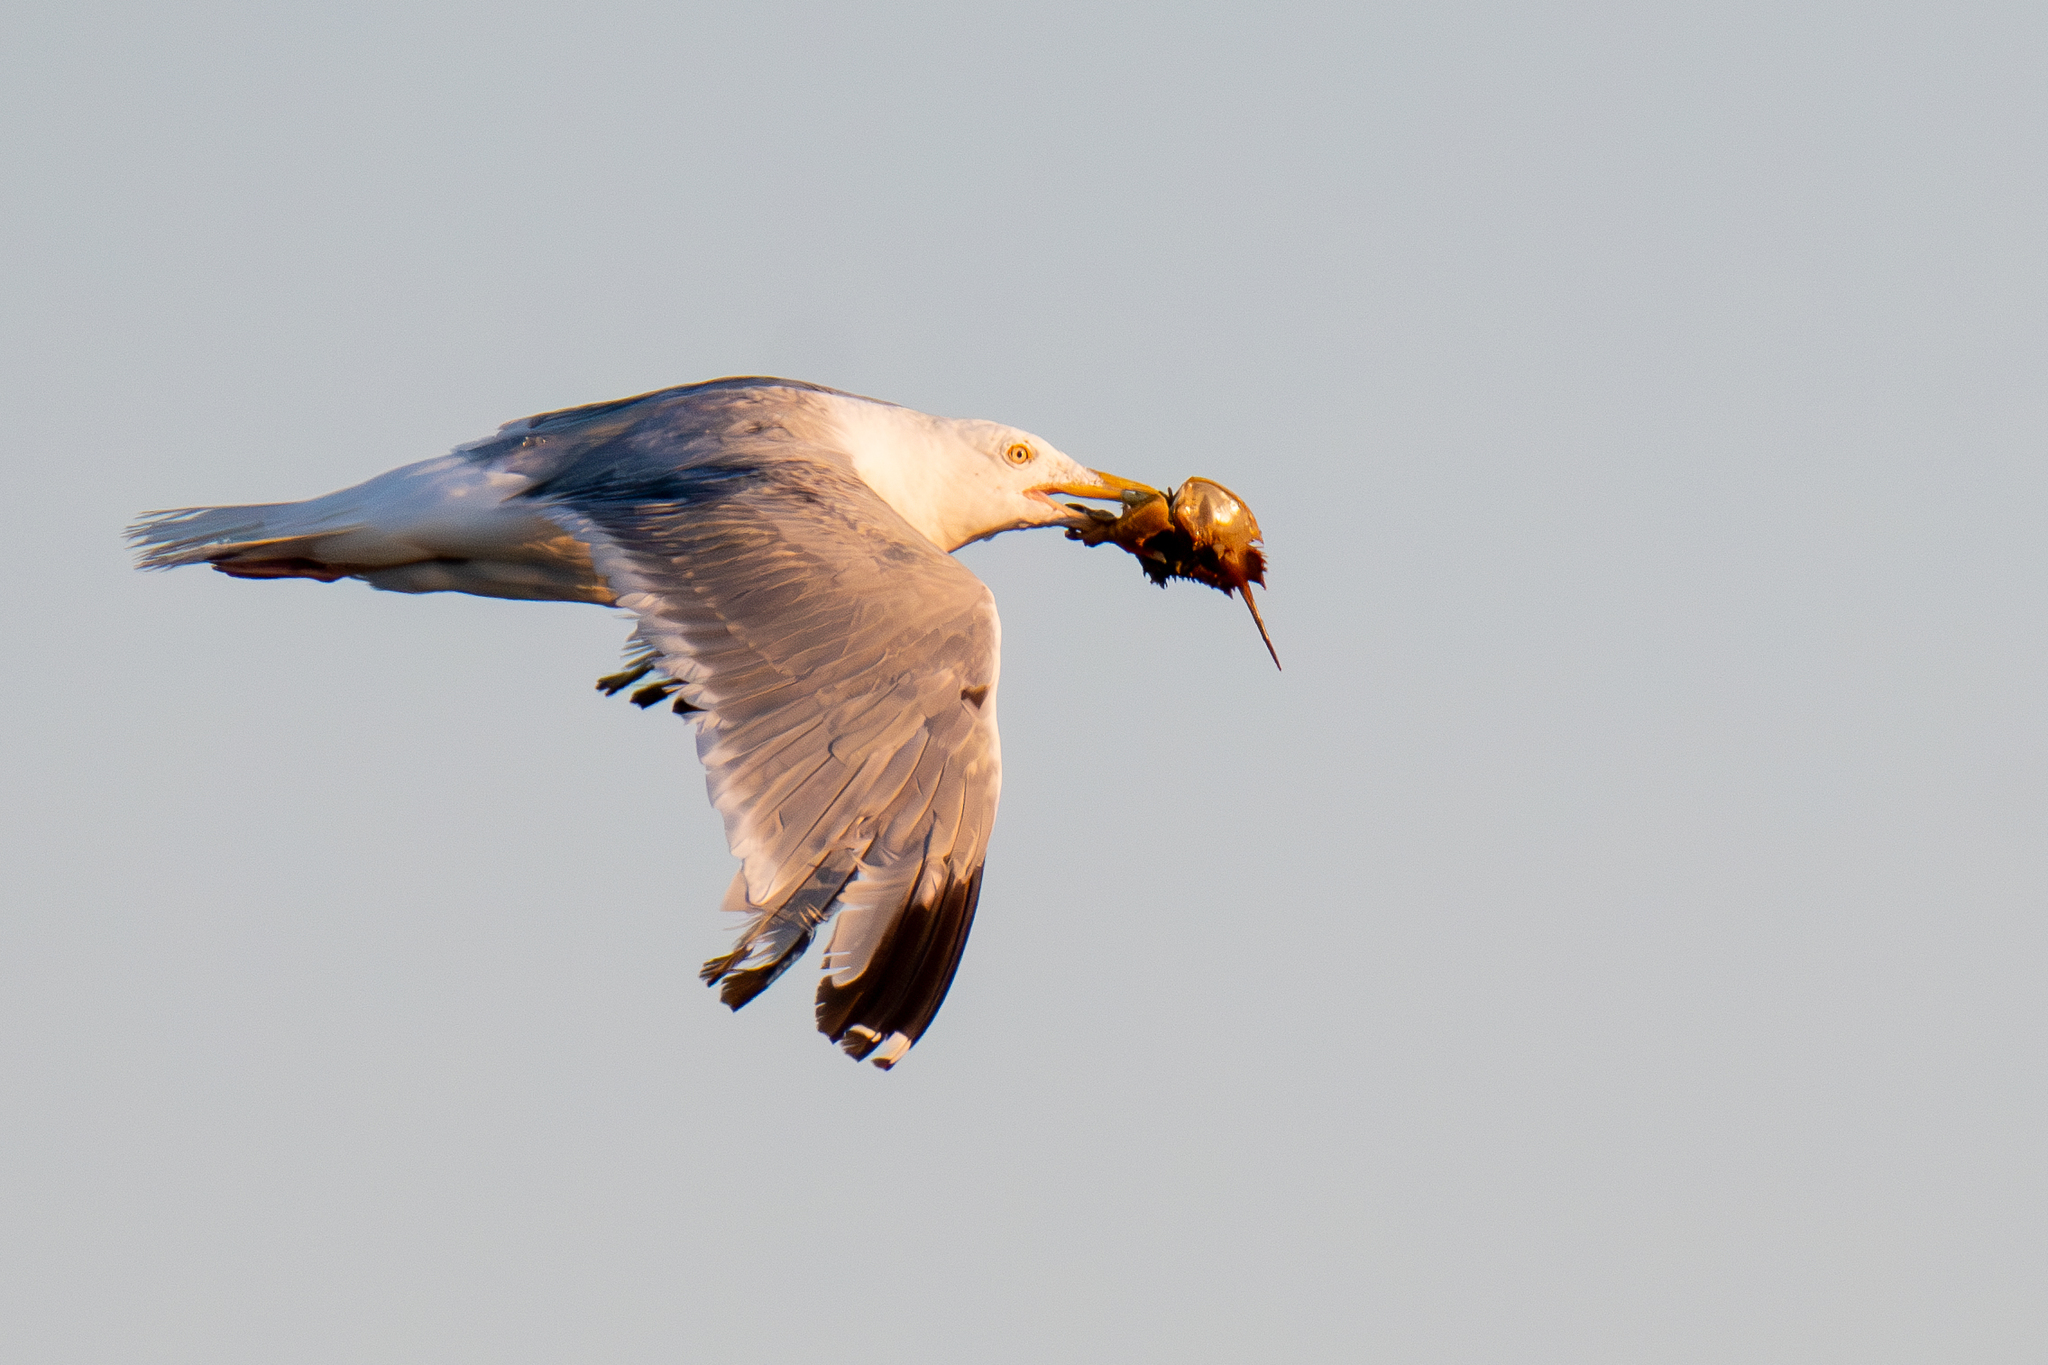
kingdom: Animalia
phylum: Arthropoda
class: Merostomata
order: Xiphosurida
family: Limulidae
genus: Limulus
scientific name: Limulus polyphemus
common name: Horseshoe crab
